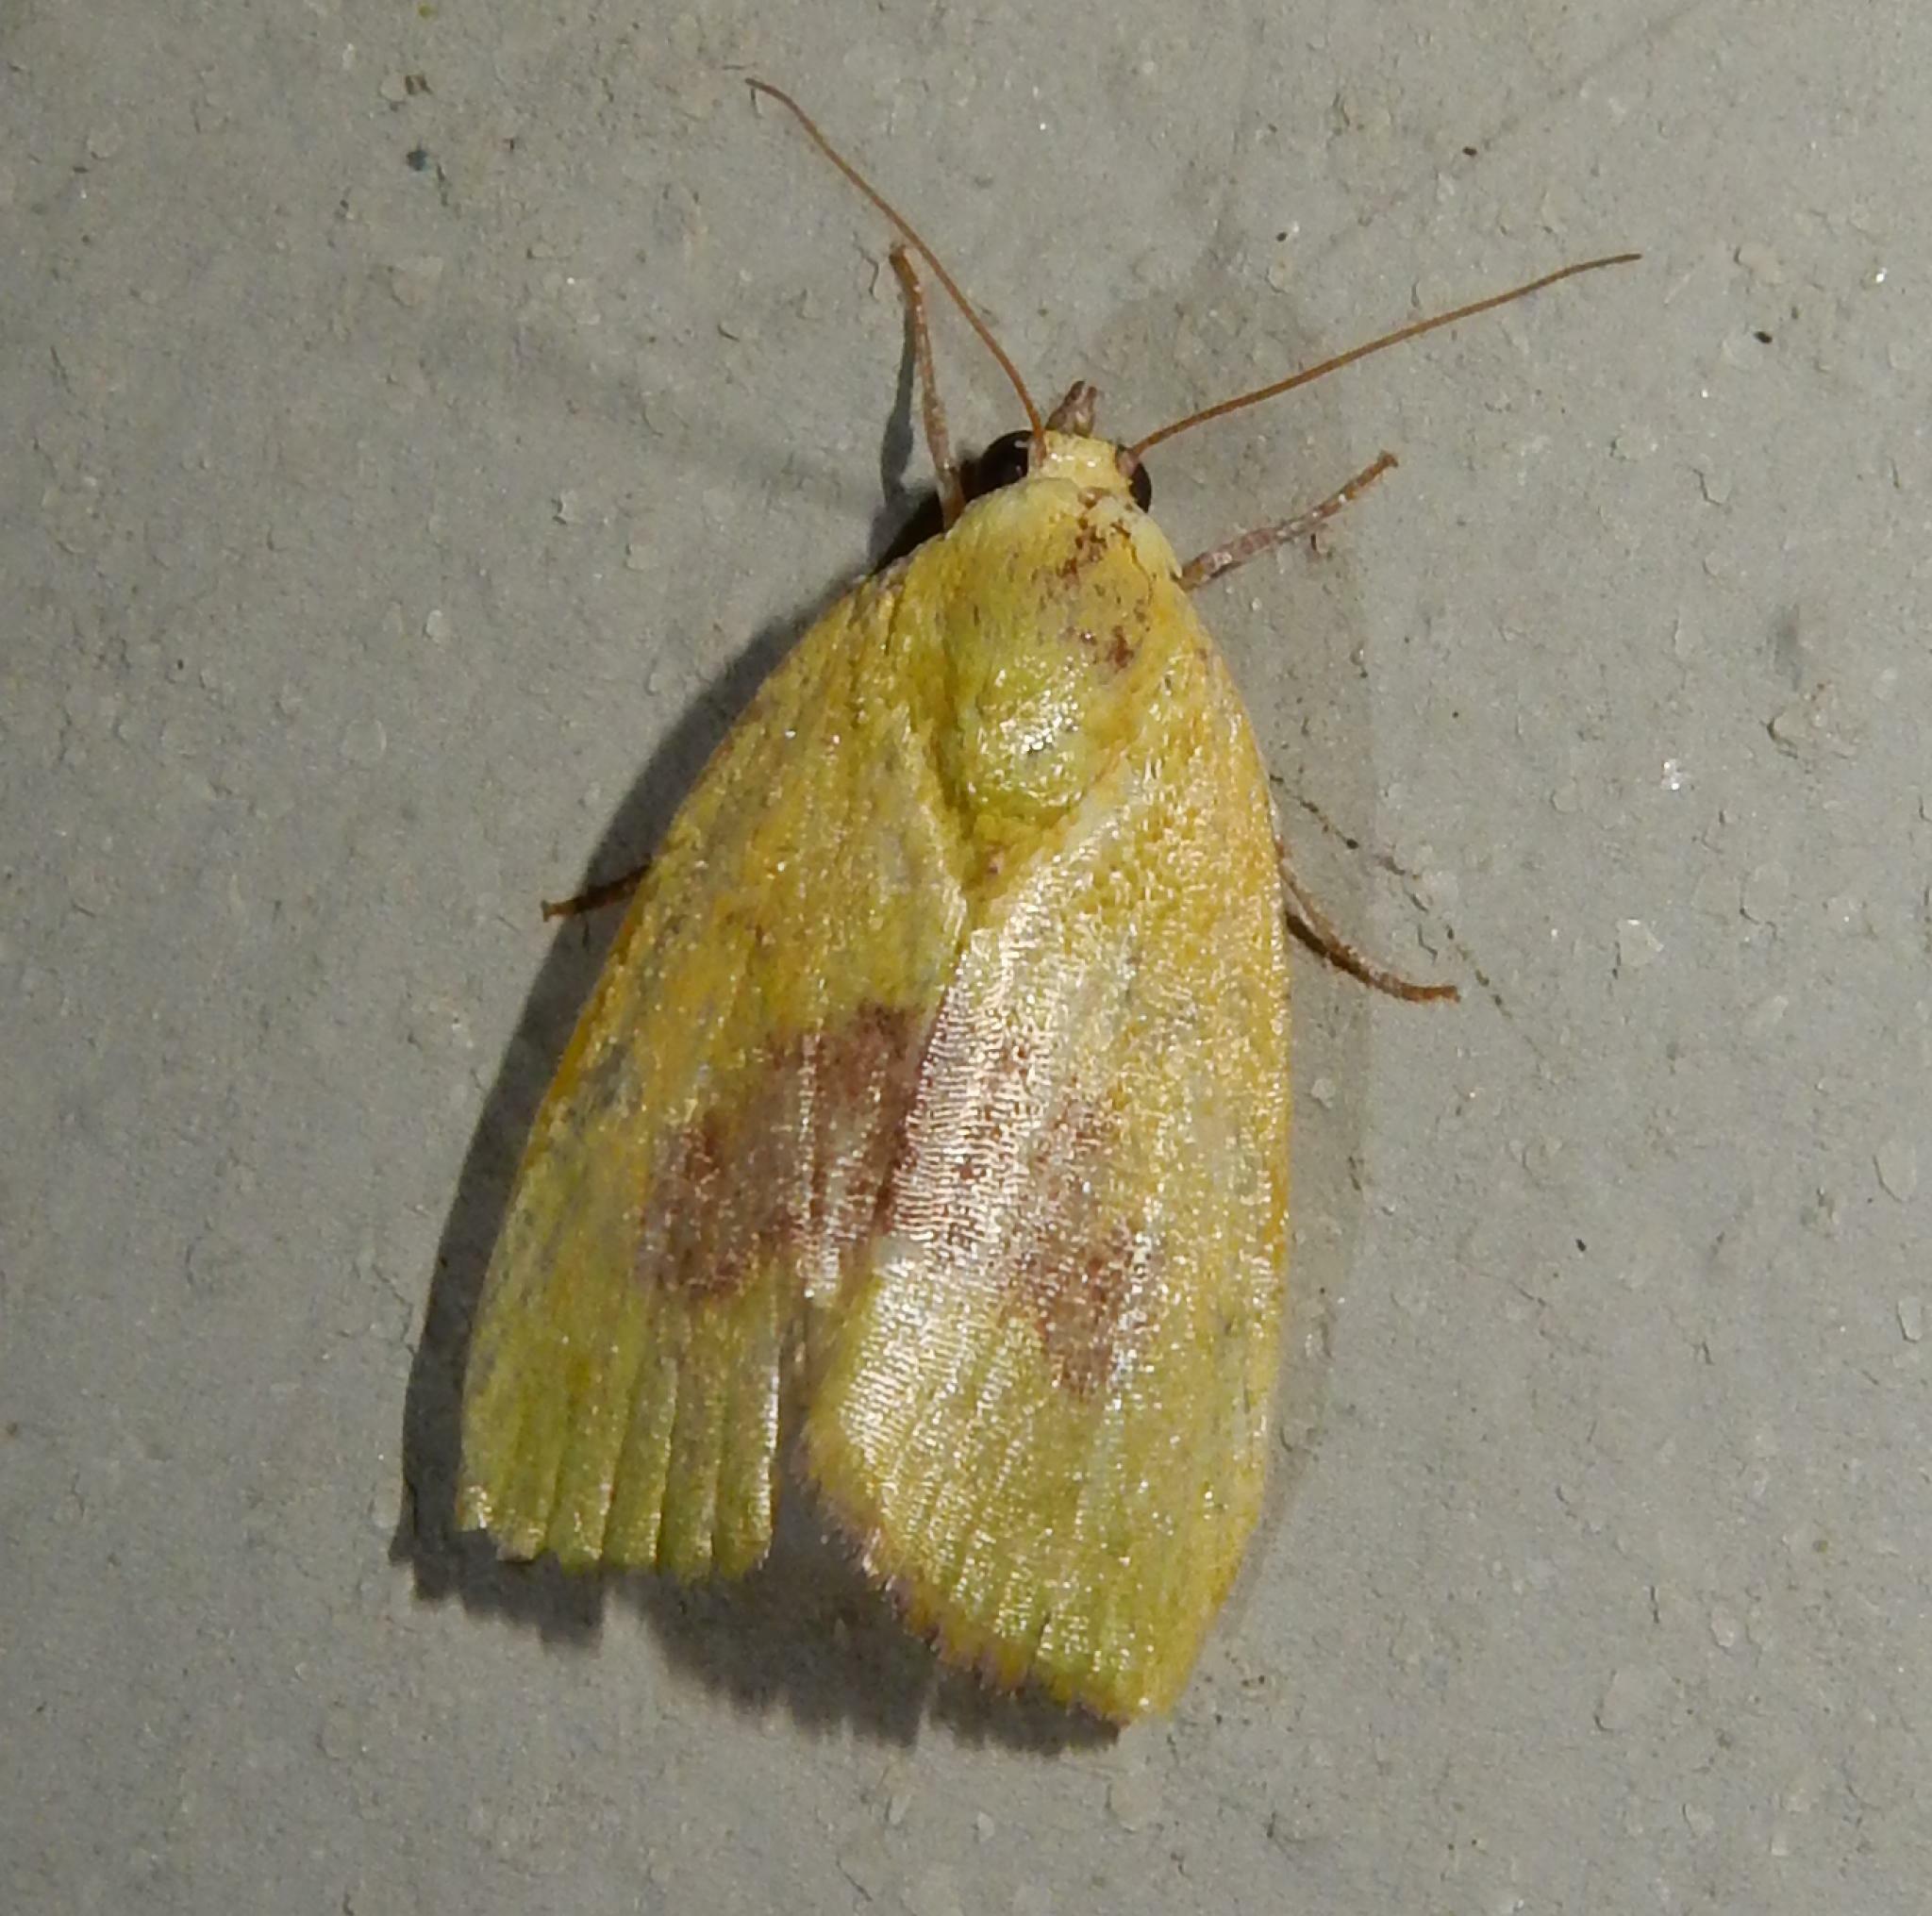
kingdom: Animalia
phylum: Arthropoda
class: Insecta
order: Lepidoptera
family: Nolidae
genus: Earias
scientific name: Earias biplaga
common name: Spiny bollworm
